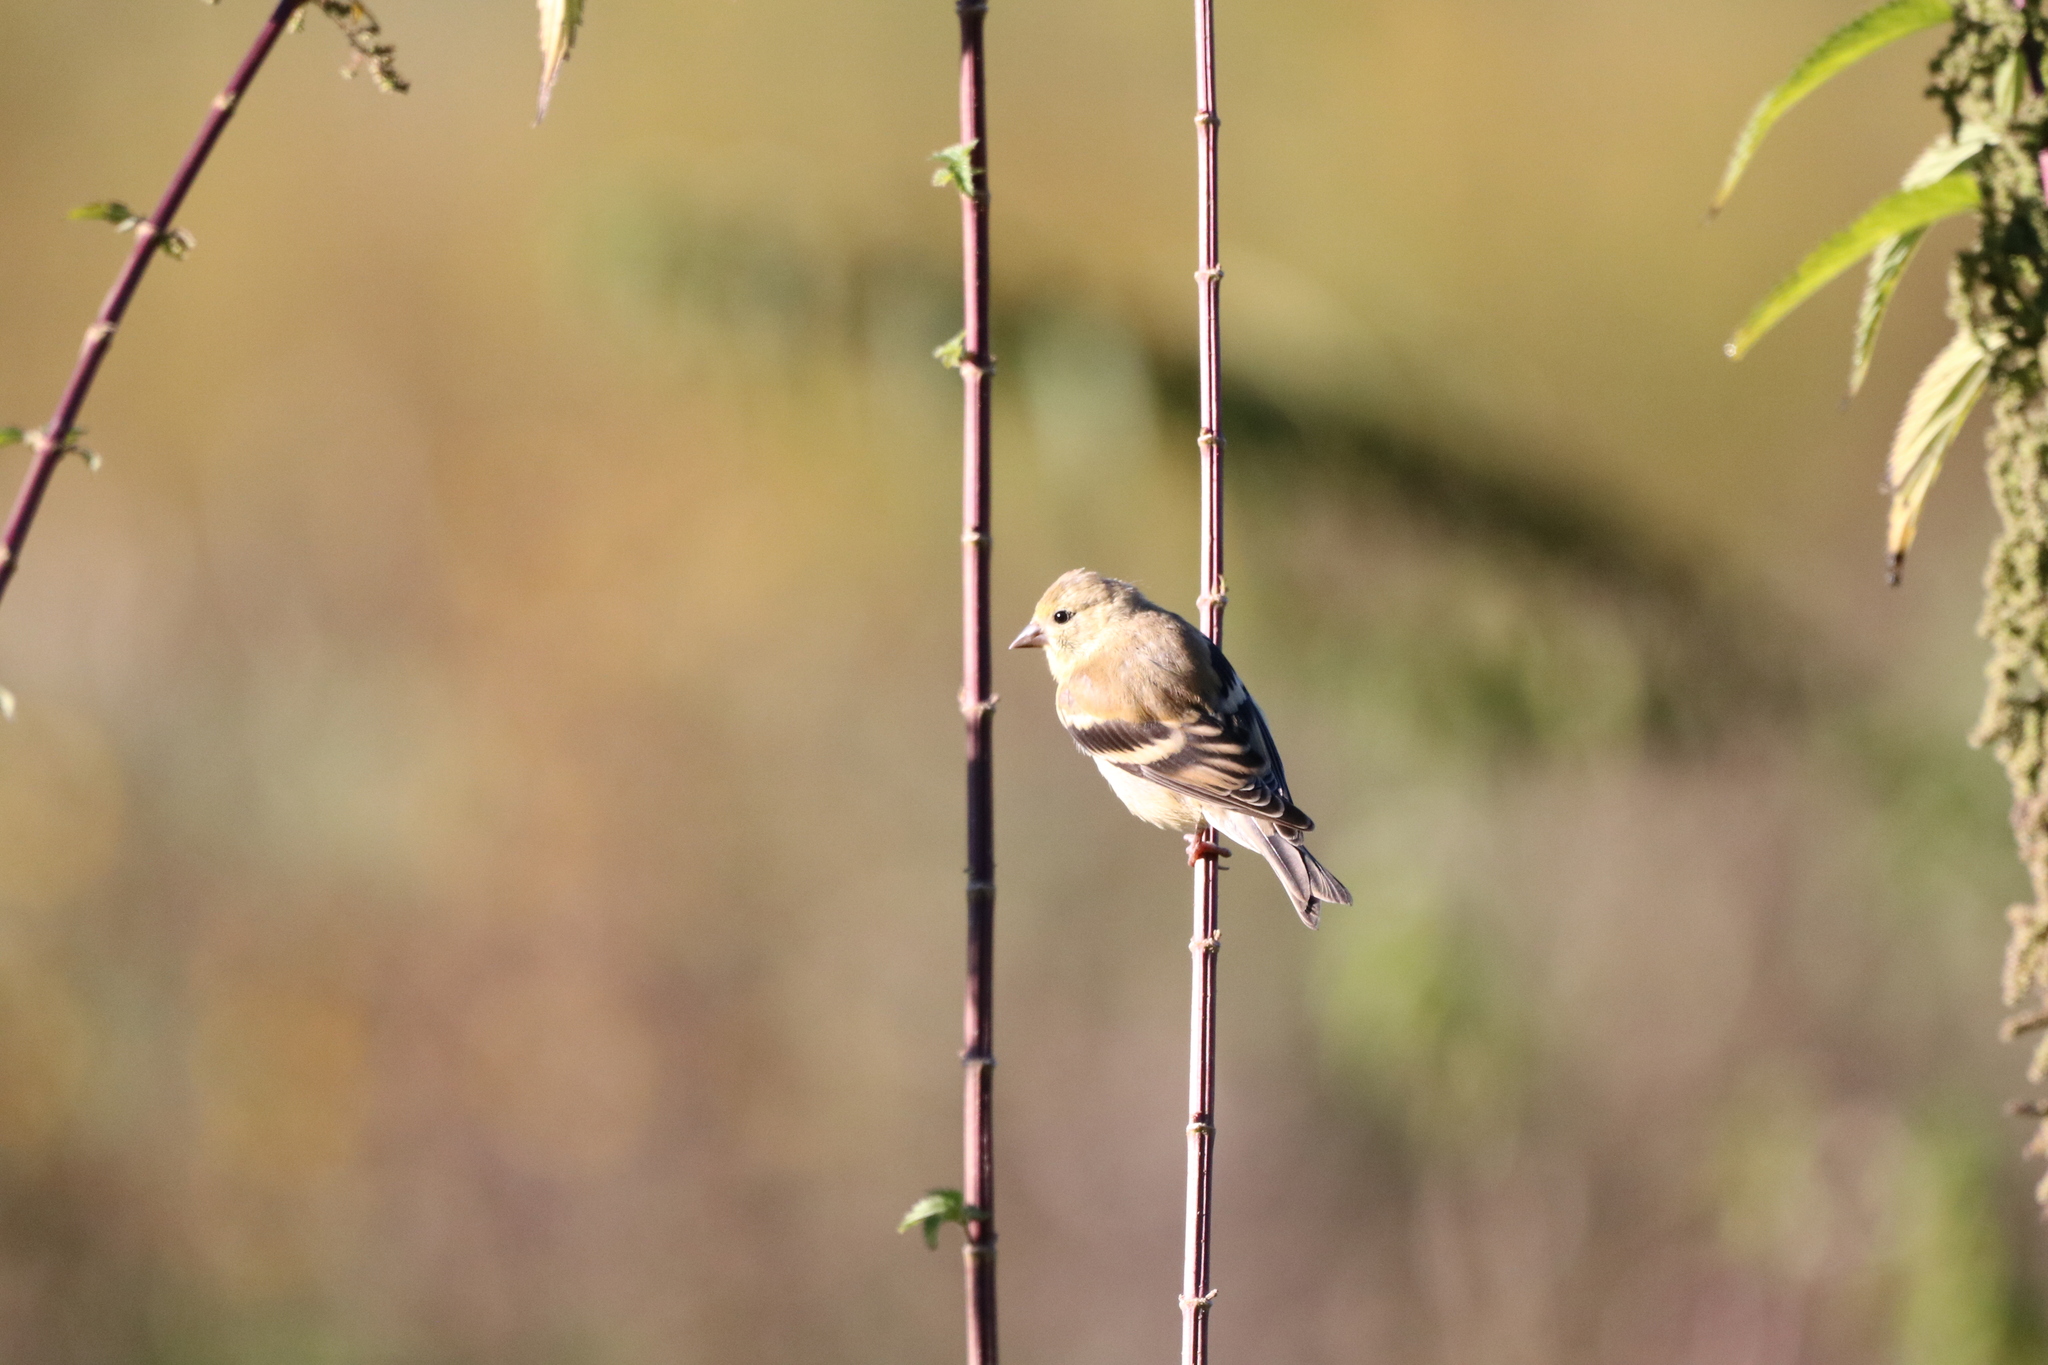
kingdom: Animalia
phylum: Chordata
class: Aves
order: Passeriformes
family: Fringillidae
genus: Spinus
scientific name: Spinus tristis
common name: American goldfinch
